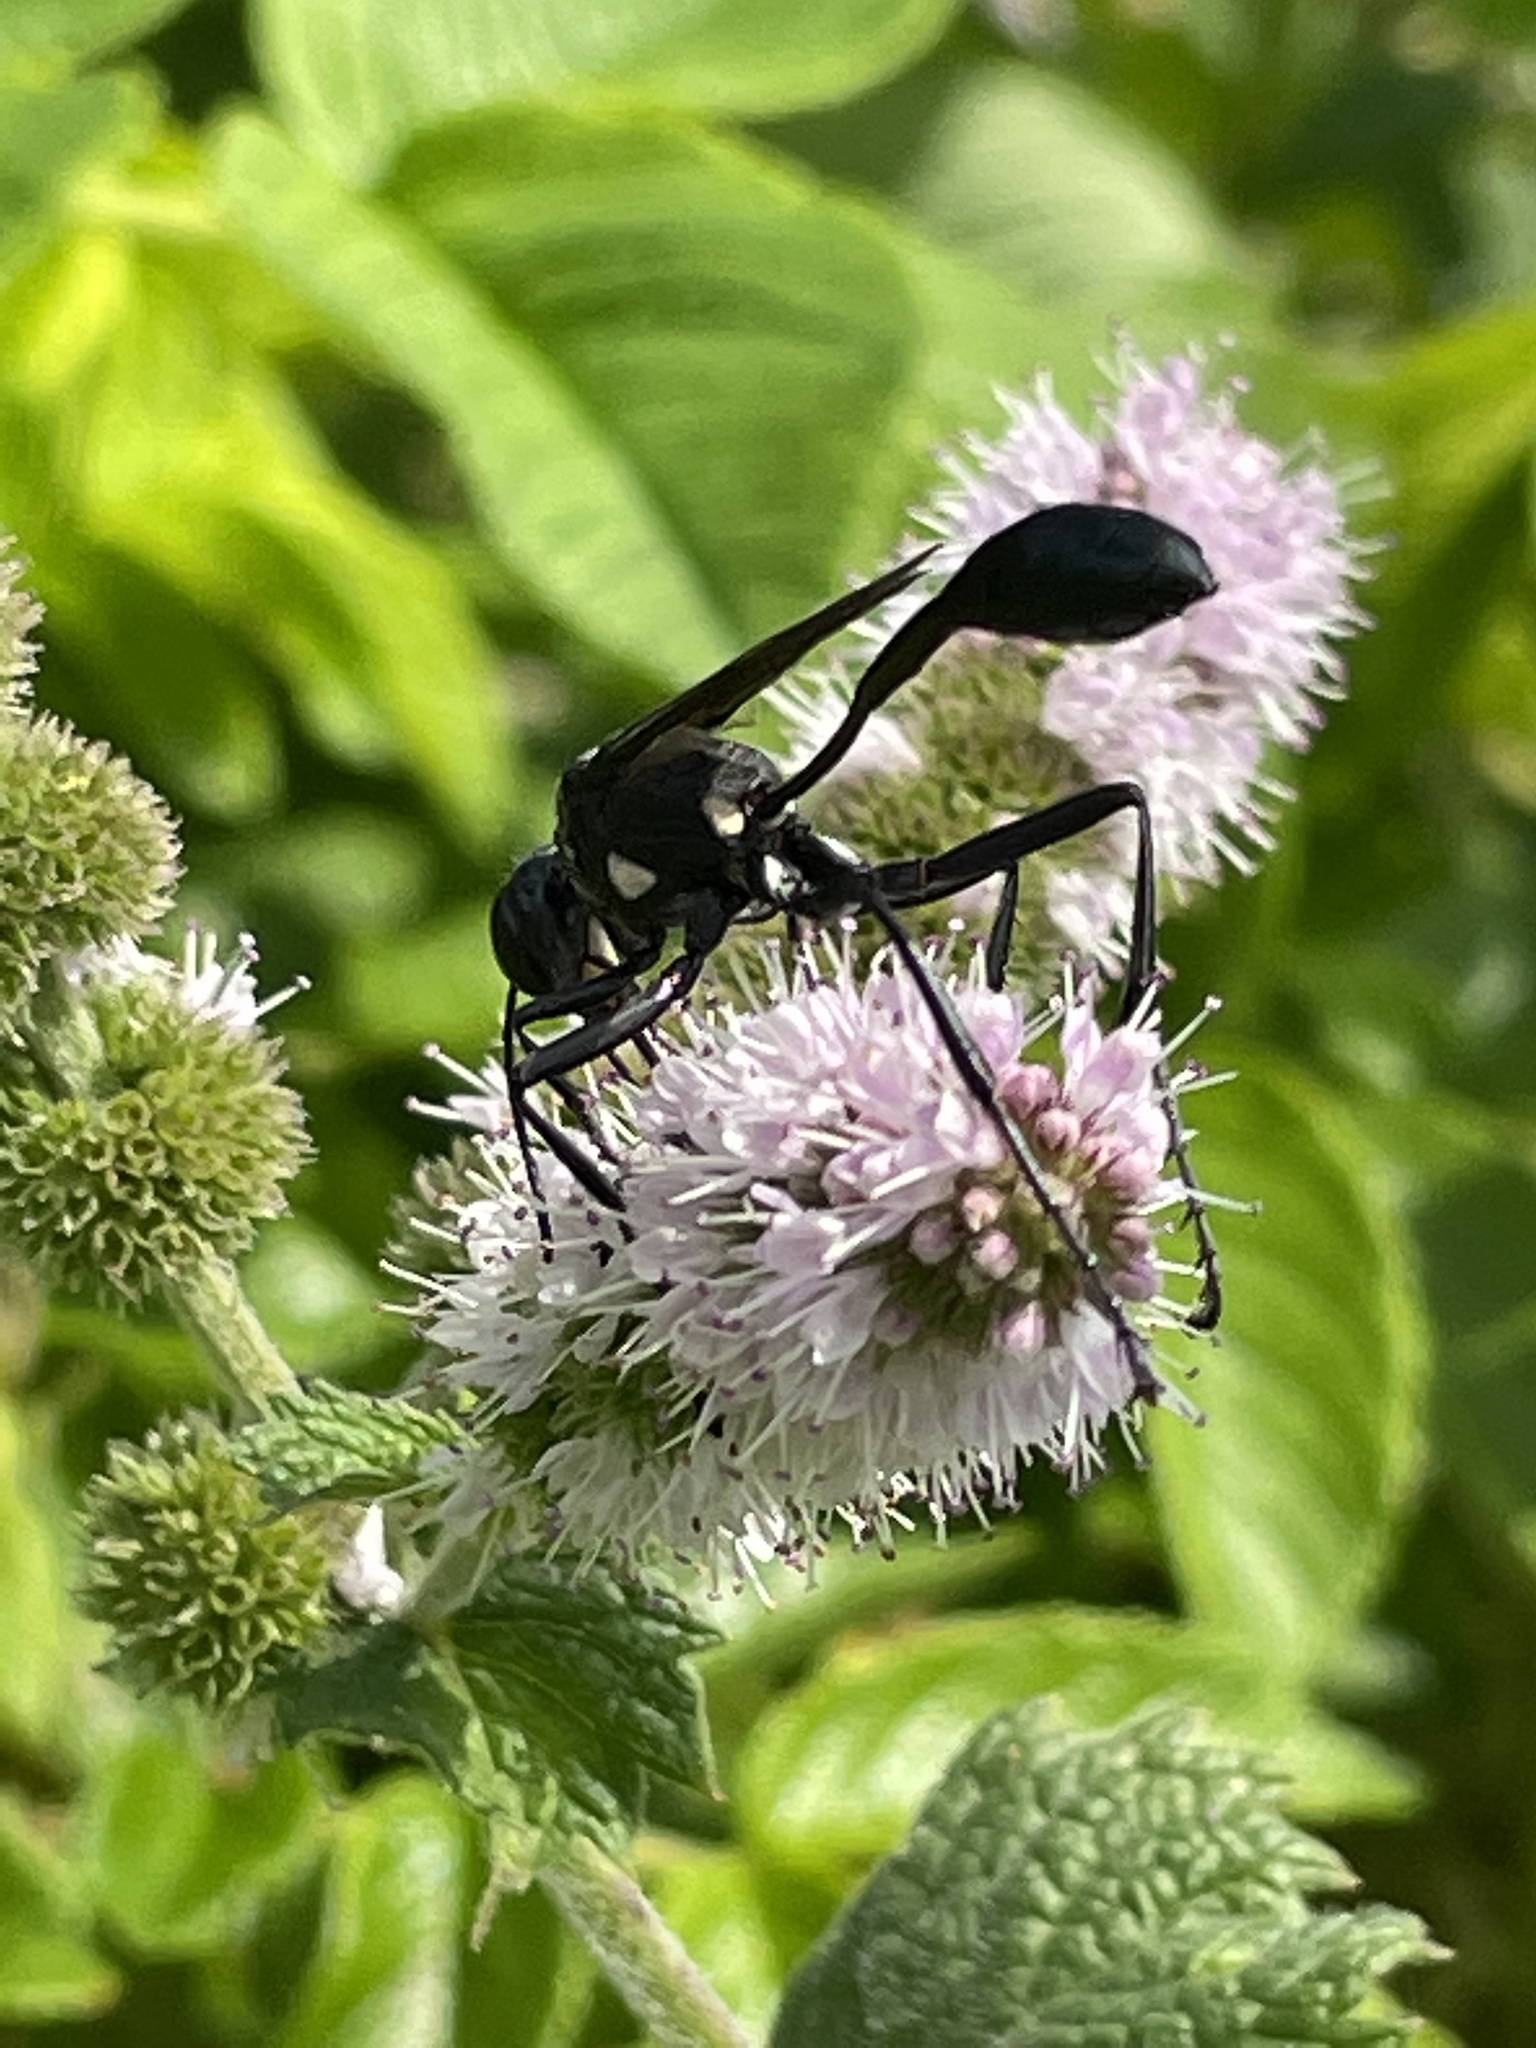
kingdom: Animalia
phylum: Arthropoda
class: Insecta
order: Hymenoptera
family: Sphecidae
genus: Eremnophila
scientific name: Eremnophila aureonotata
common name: Gold-marked thread-waisted wasp
